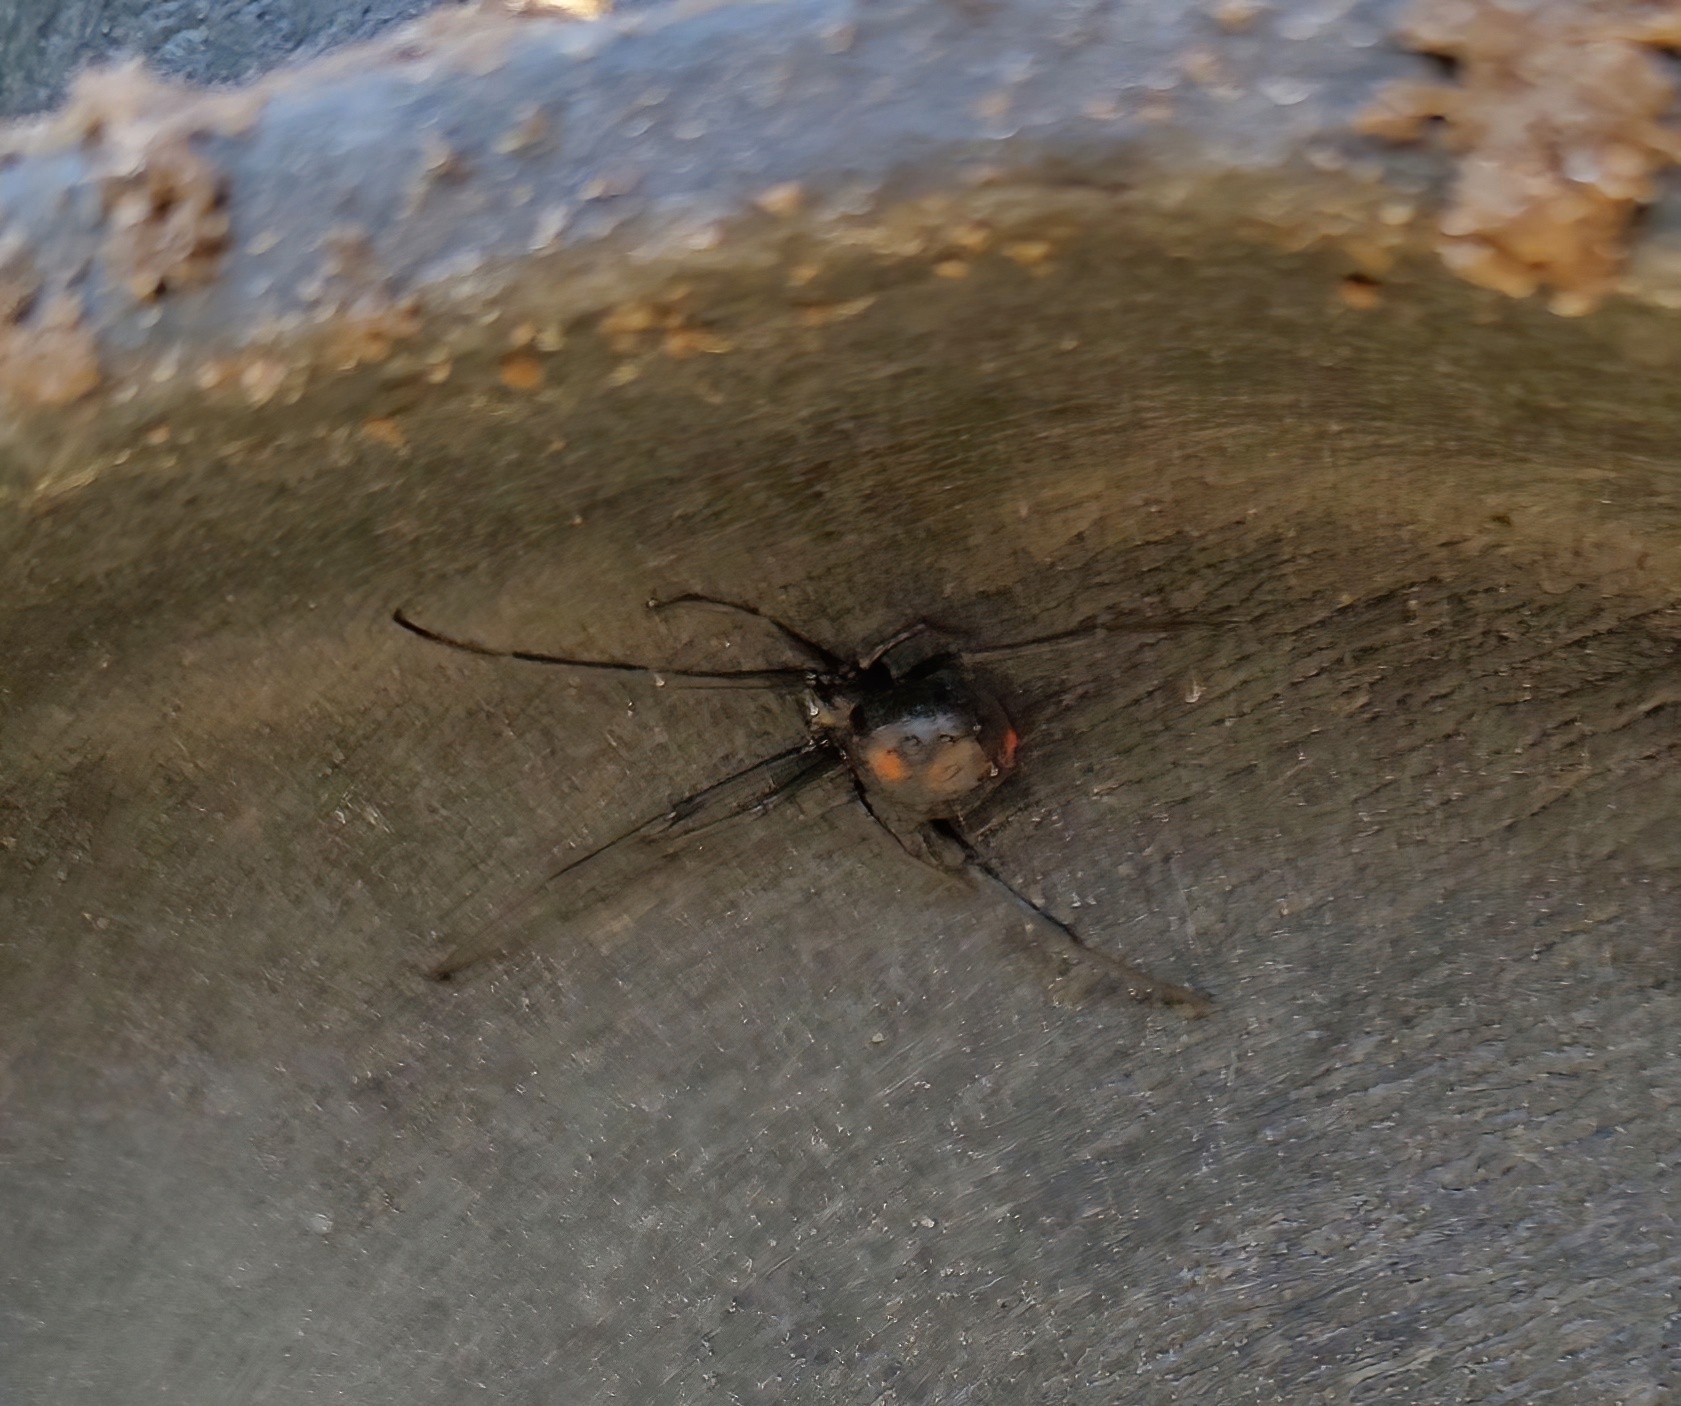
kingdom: Animalia
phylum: Arthropoda
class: Arachnida
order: Araneae
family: Theridiidae
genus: Latrodectus
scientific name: Latrodectus mactans
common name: Cobweb spiders
